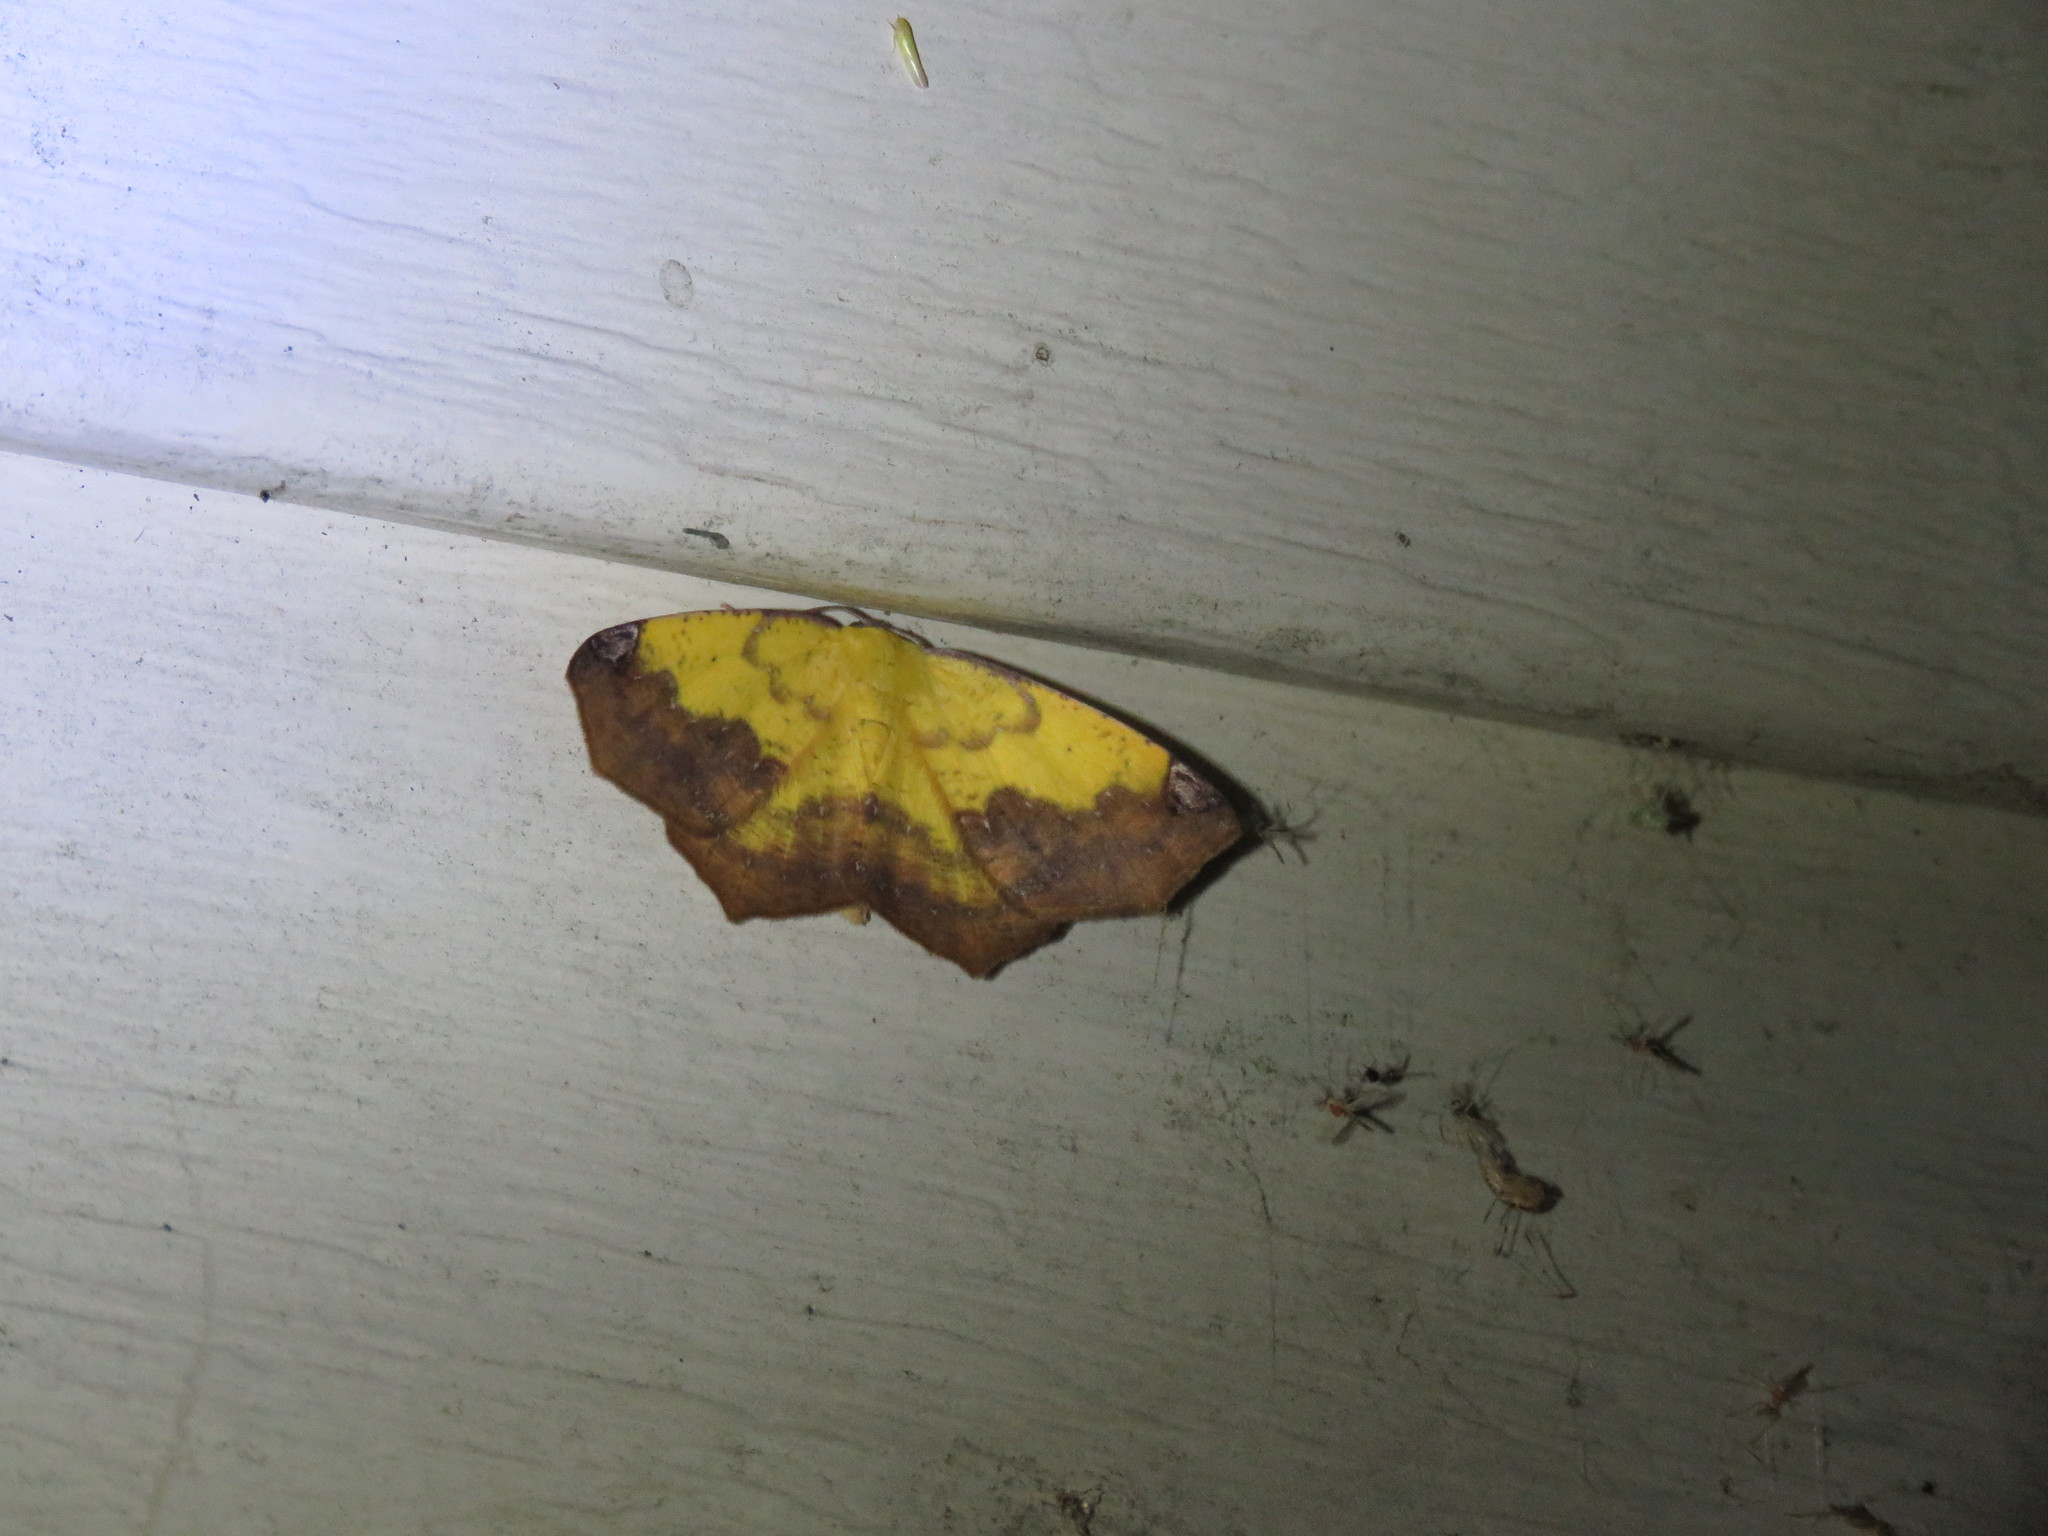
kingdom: Animalia
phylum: Arthropoda
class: Insecta
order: Lepidoptera
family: Geometridae
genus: Antepione
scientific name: Antepione thisoaria
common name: Variable antipione
